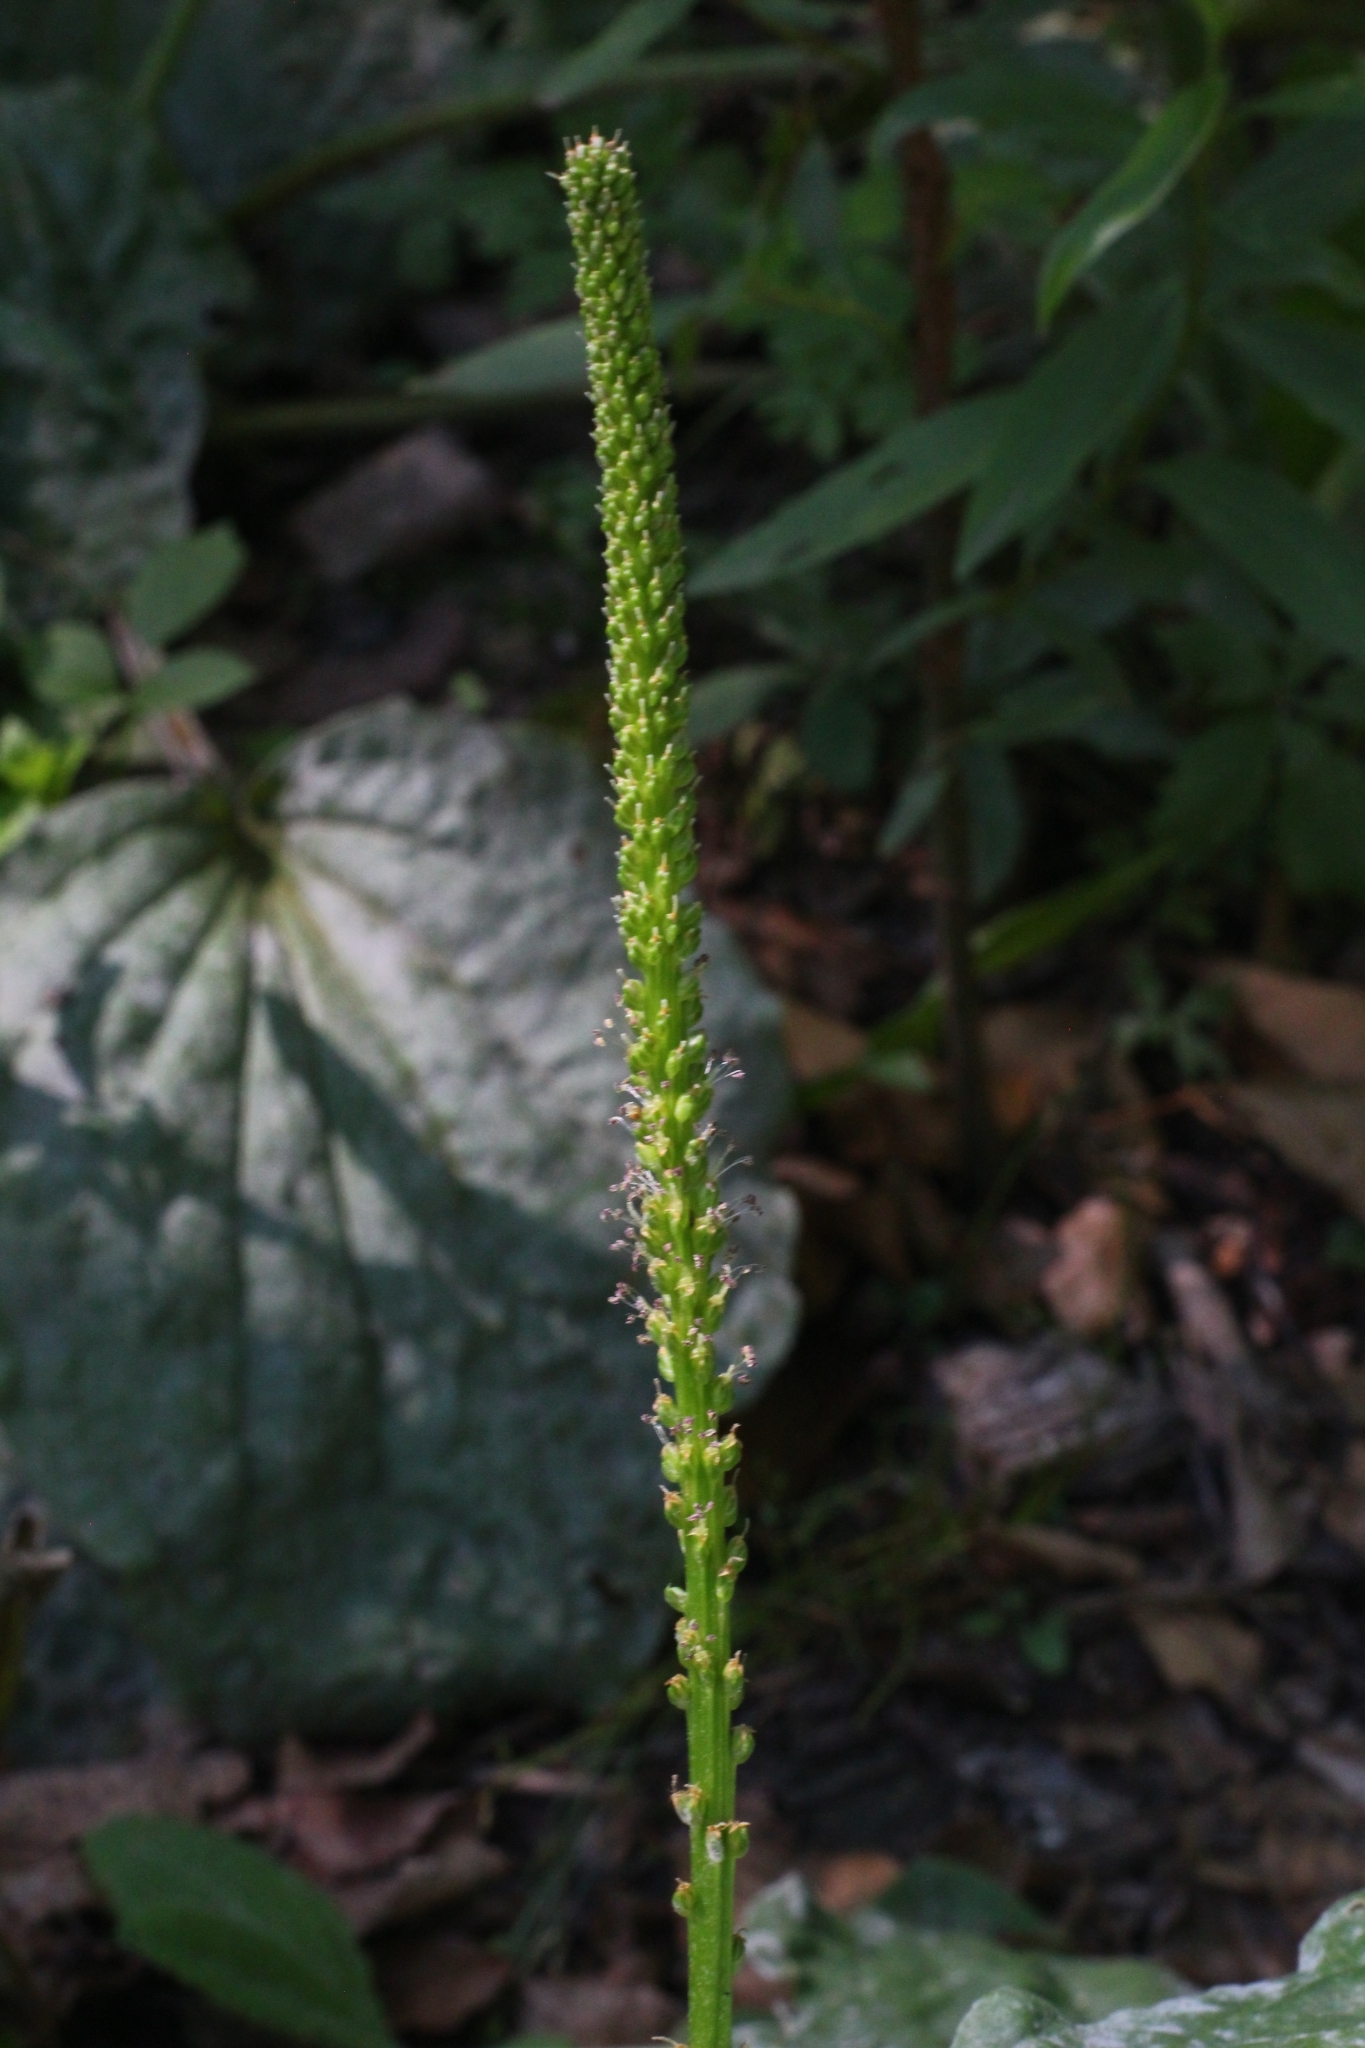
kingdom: Plantae
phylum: Tracheophyta
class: Magnoliopsida
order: Lamiales
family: Plantaginaceae
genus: Plantago
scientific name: Plantago major
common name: Common plantain
